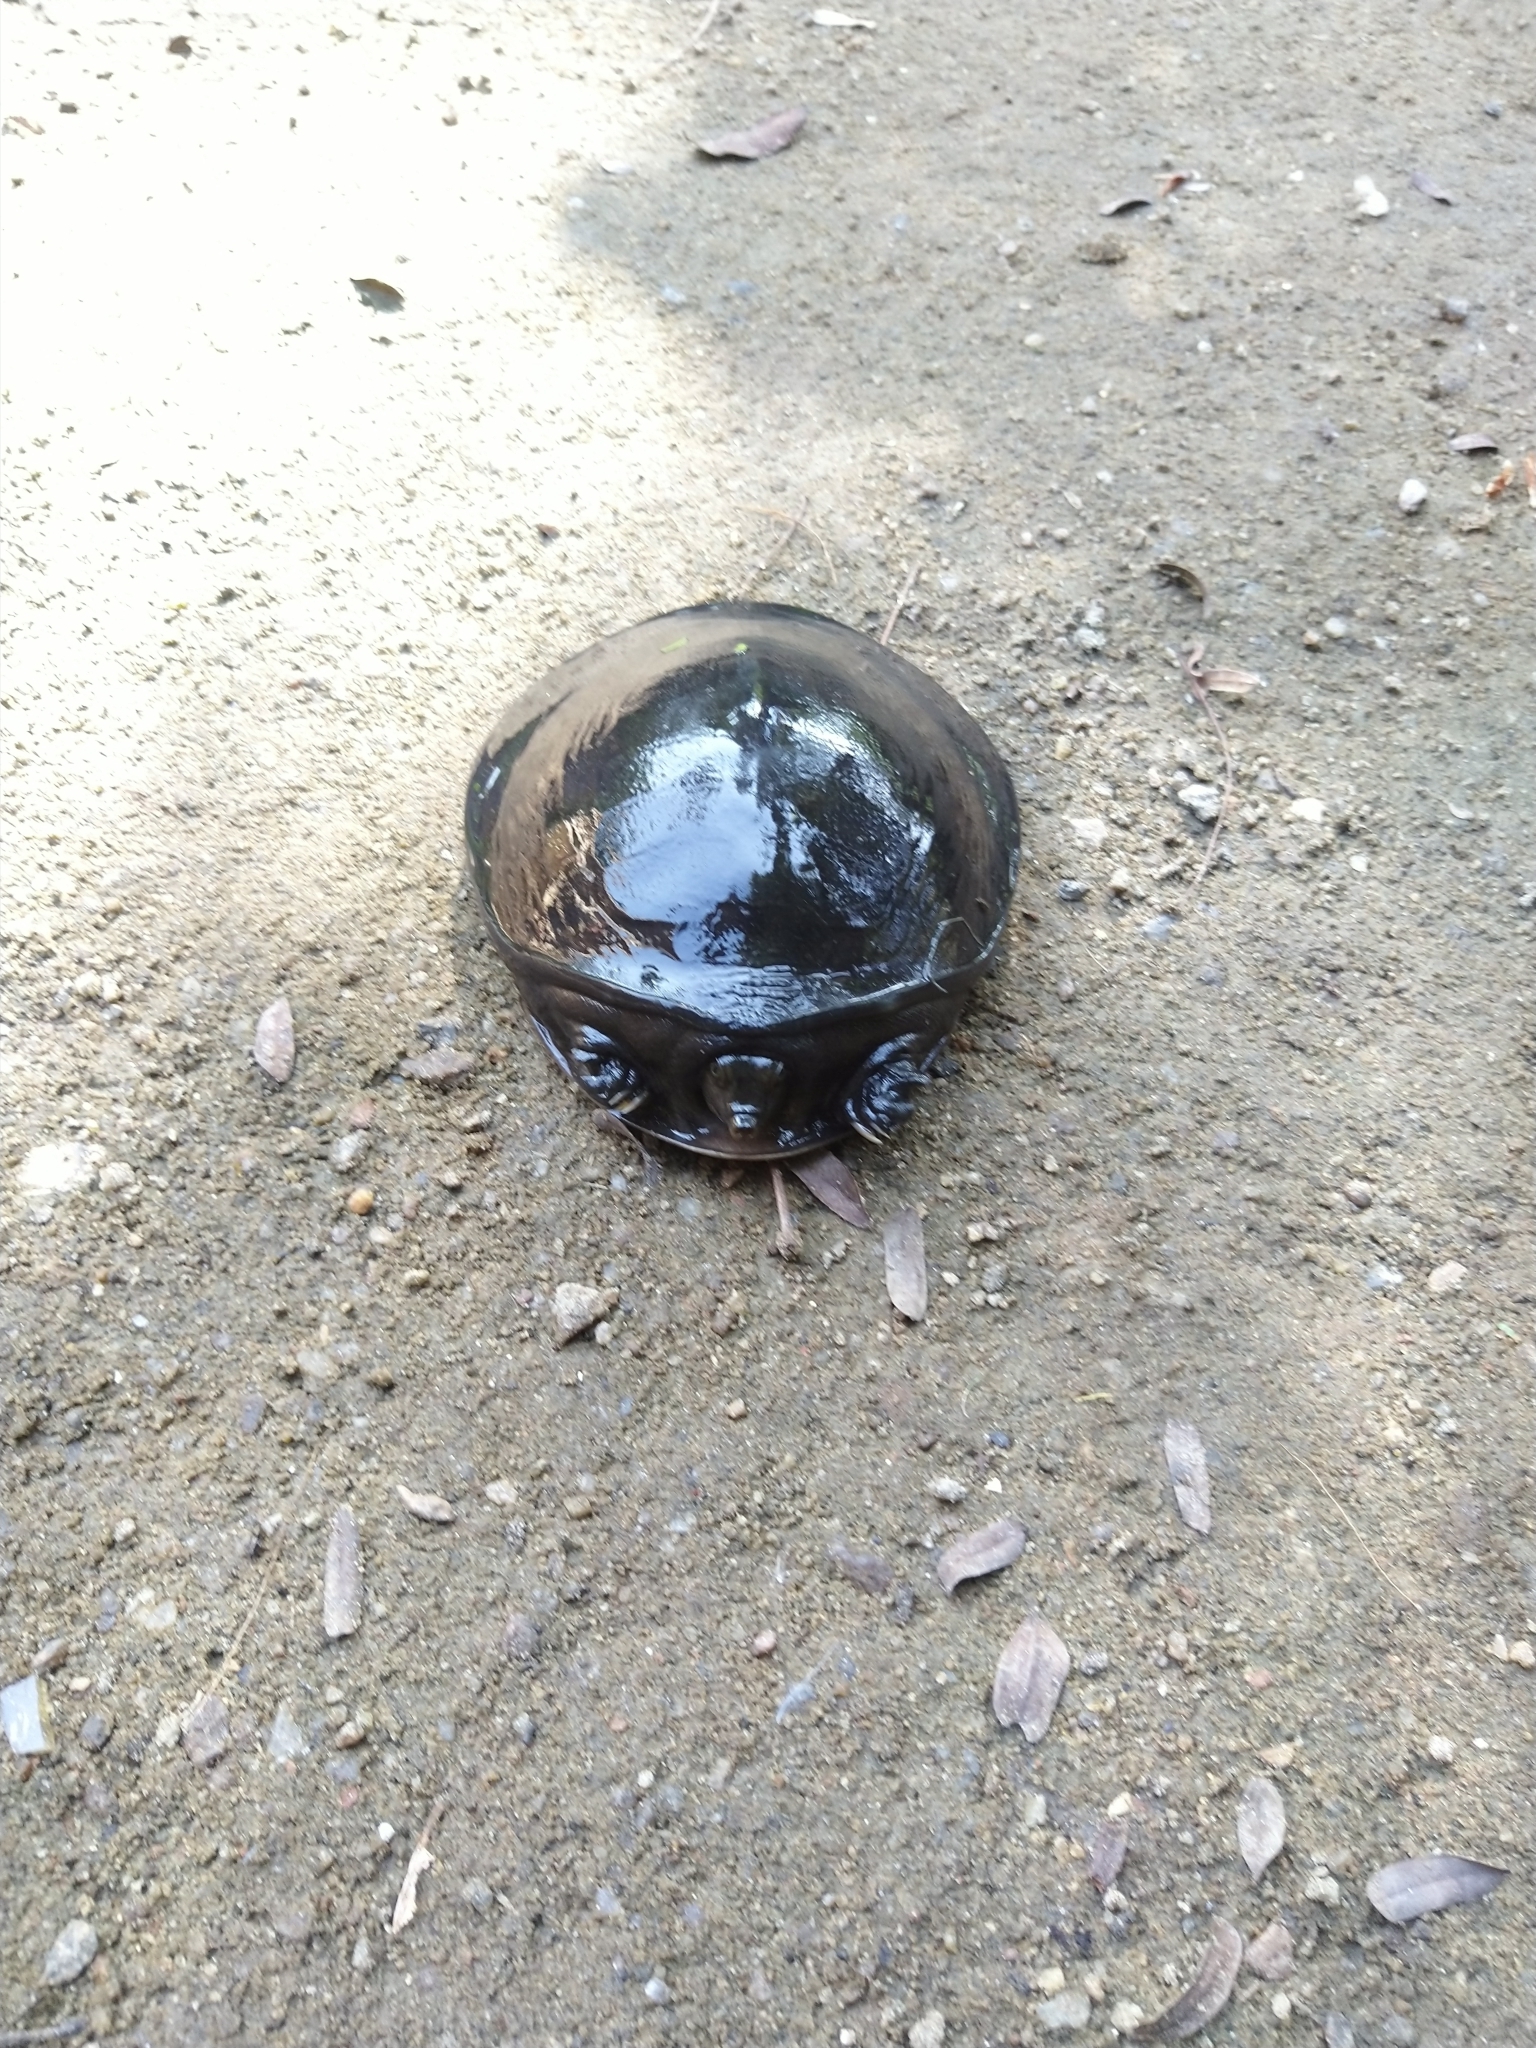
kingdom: Animalia
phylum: Chordata
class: Testudines
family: Trionychidae
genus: Lissemys
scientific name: Lissemys punctata
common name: Indian flap-shelled turtle
